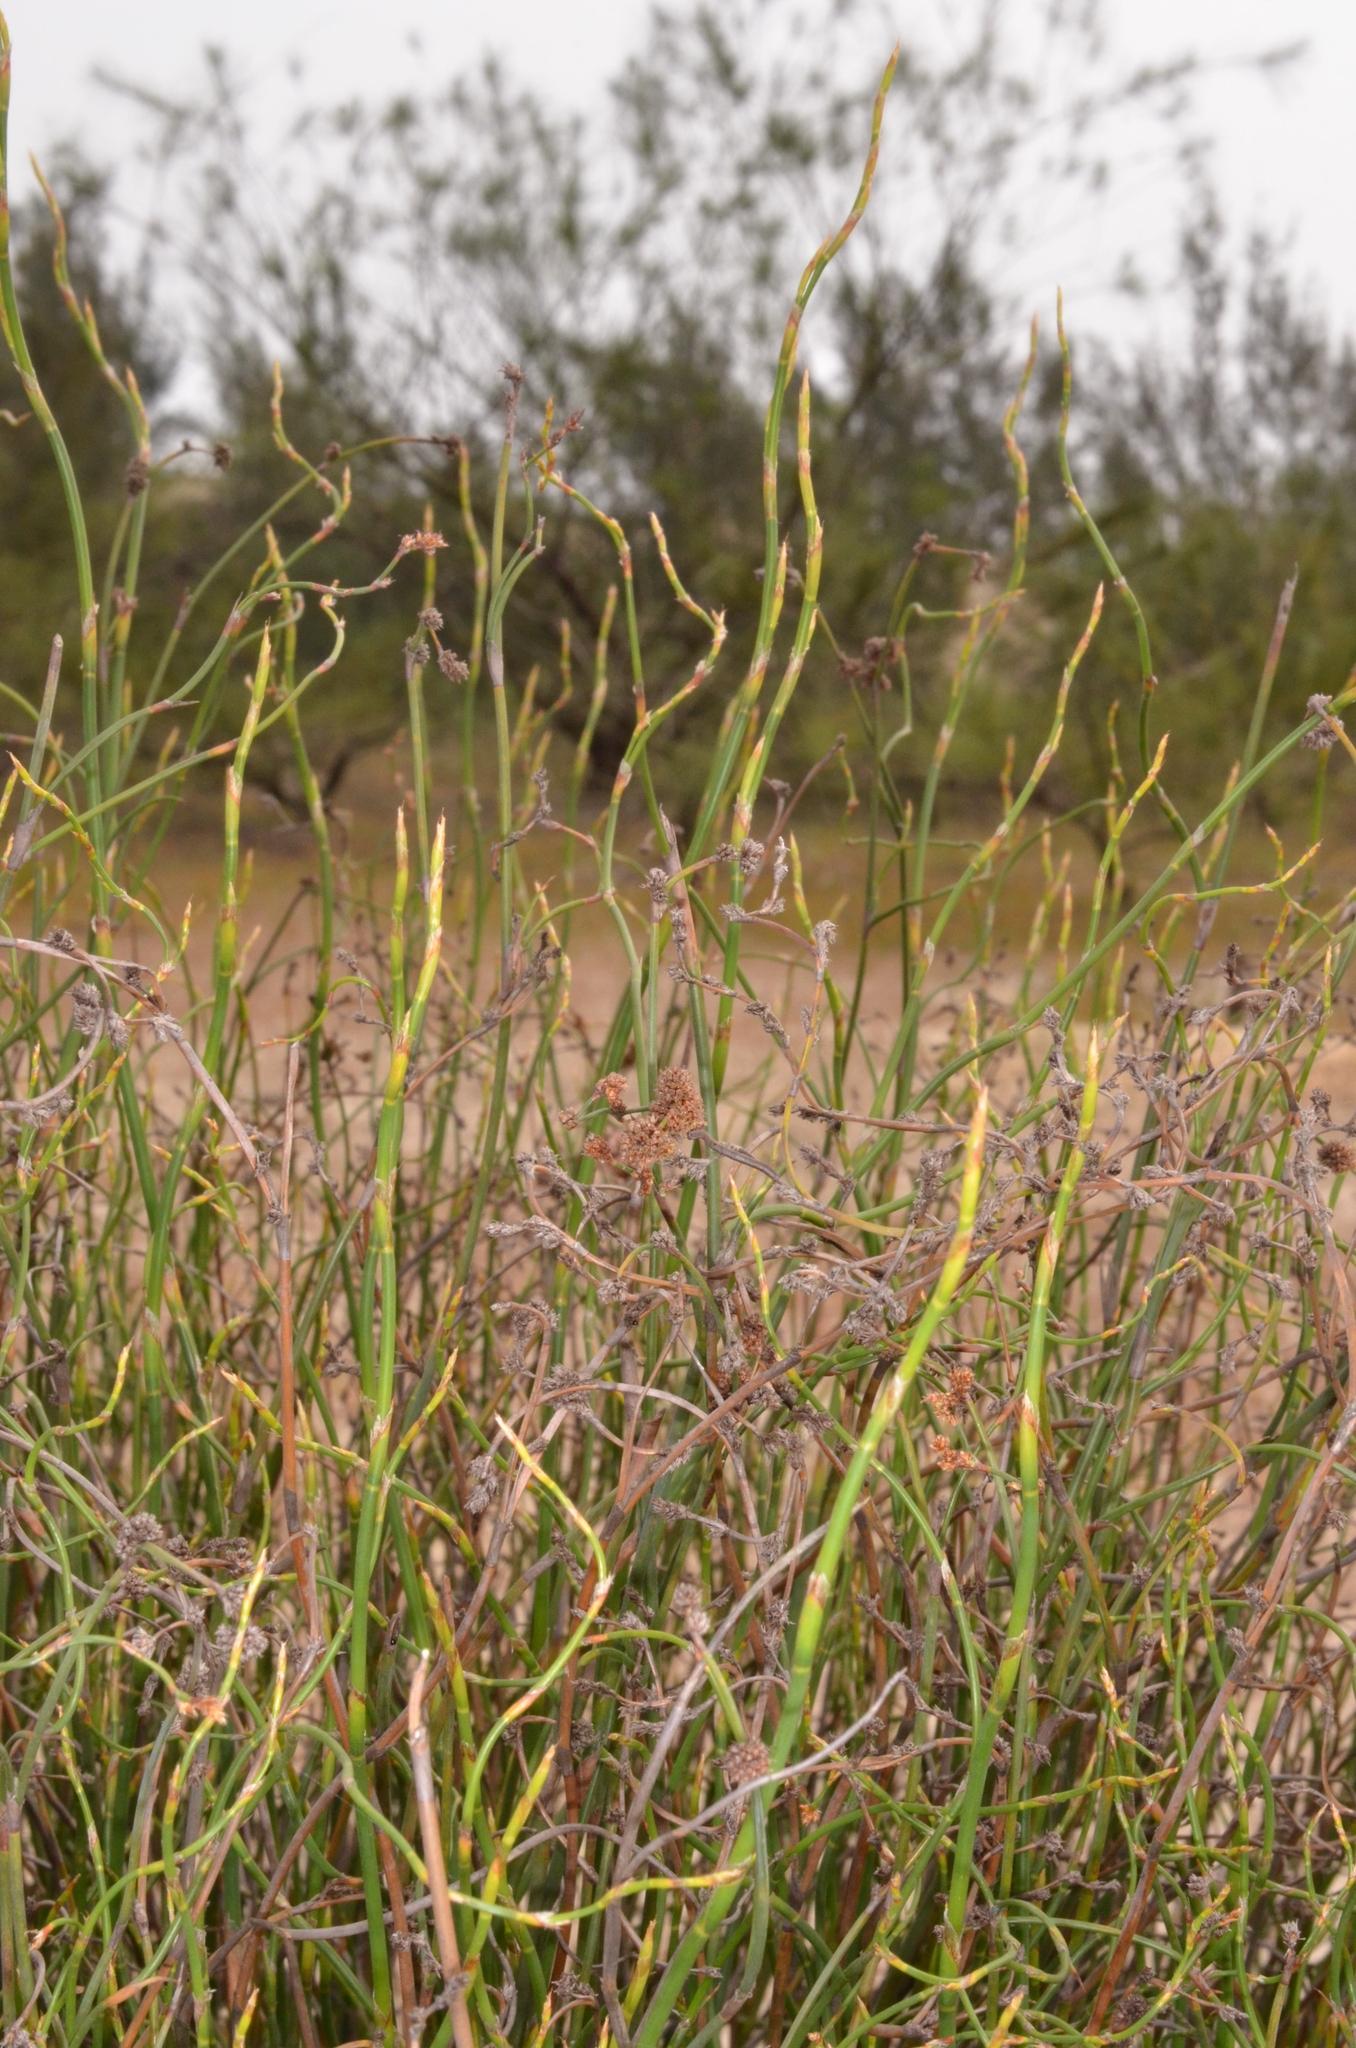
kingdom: Plantae
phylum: Tracheophyta
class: Liliopsida
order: Poales
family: Restionaceae
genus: Dapsilanthus
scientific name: Dapsilanthus disjunctus
